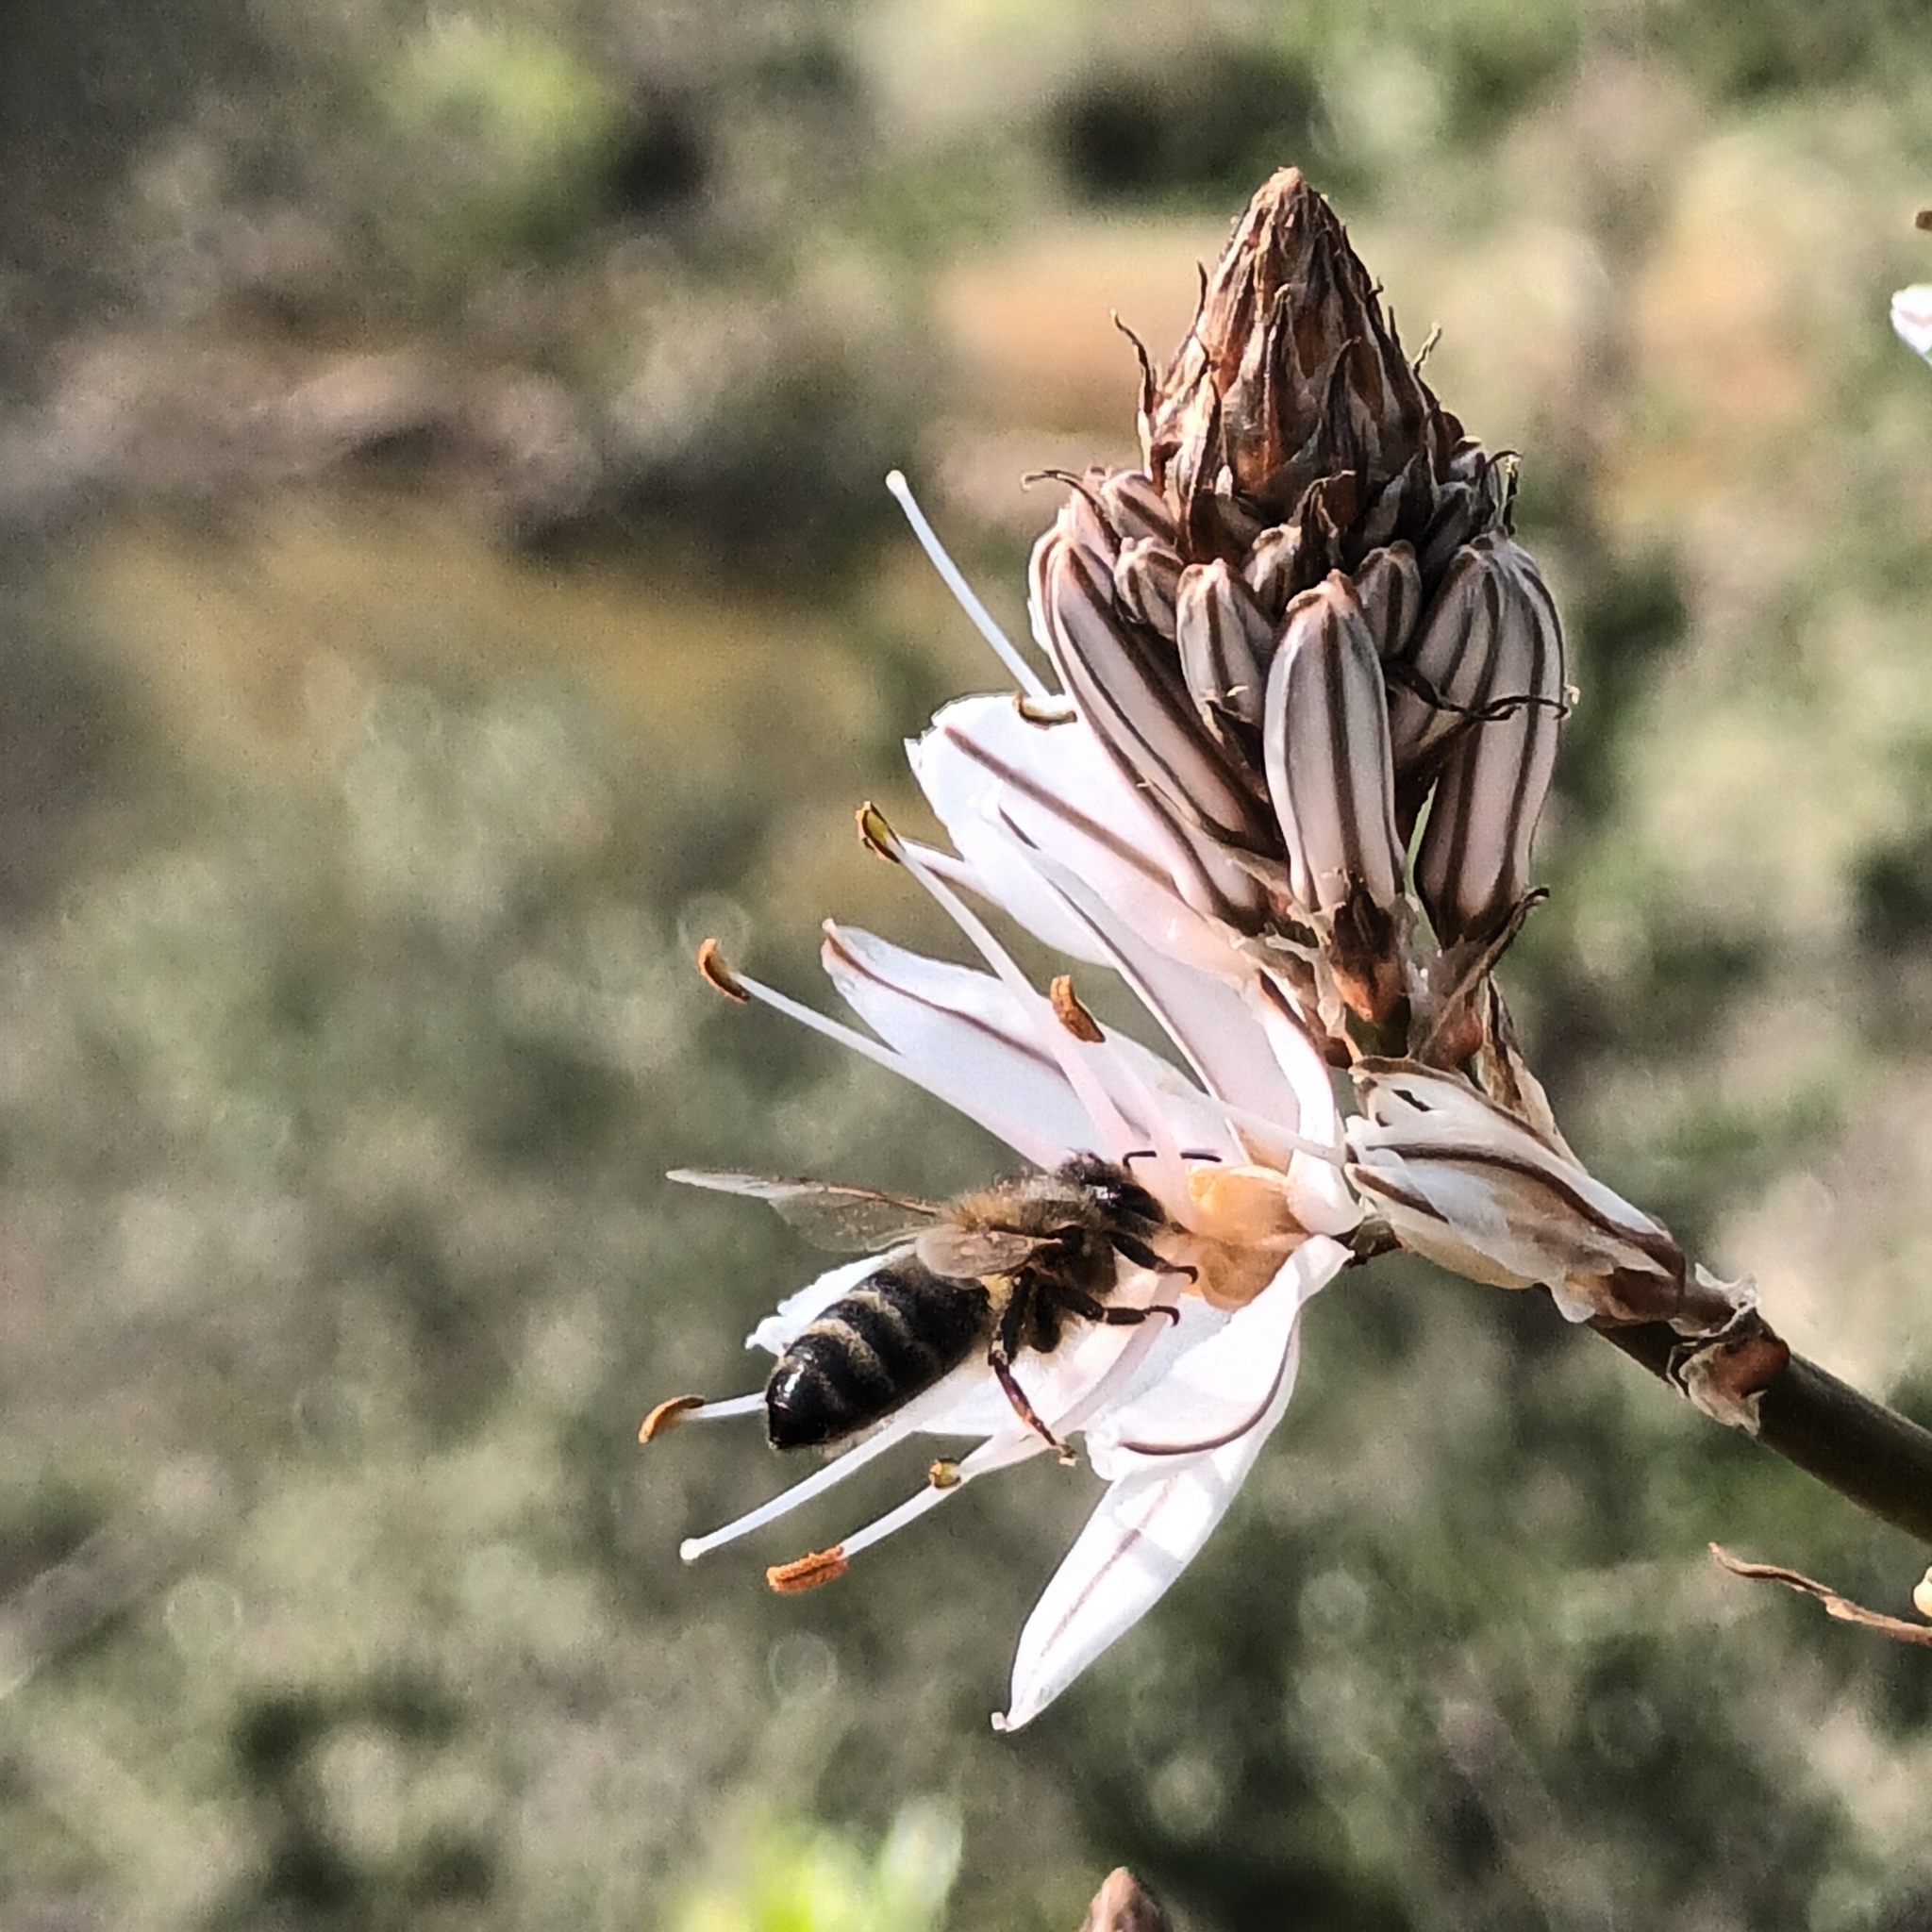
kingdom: Animalia
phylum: Arthropoda
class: Insecta
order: Hymenoptera
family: Apidae
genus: Apis
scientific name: Apis mellifera
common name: Honey bee
